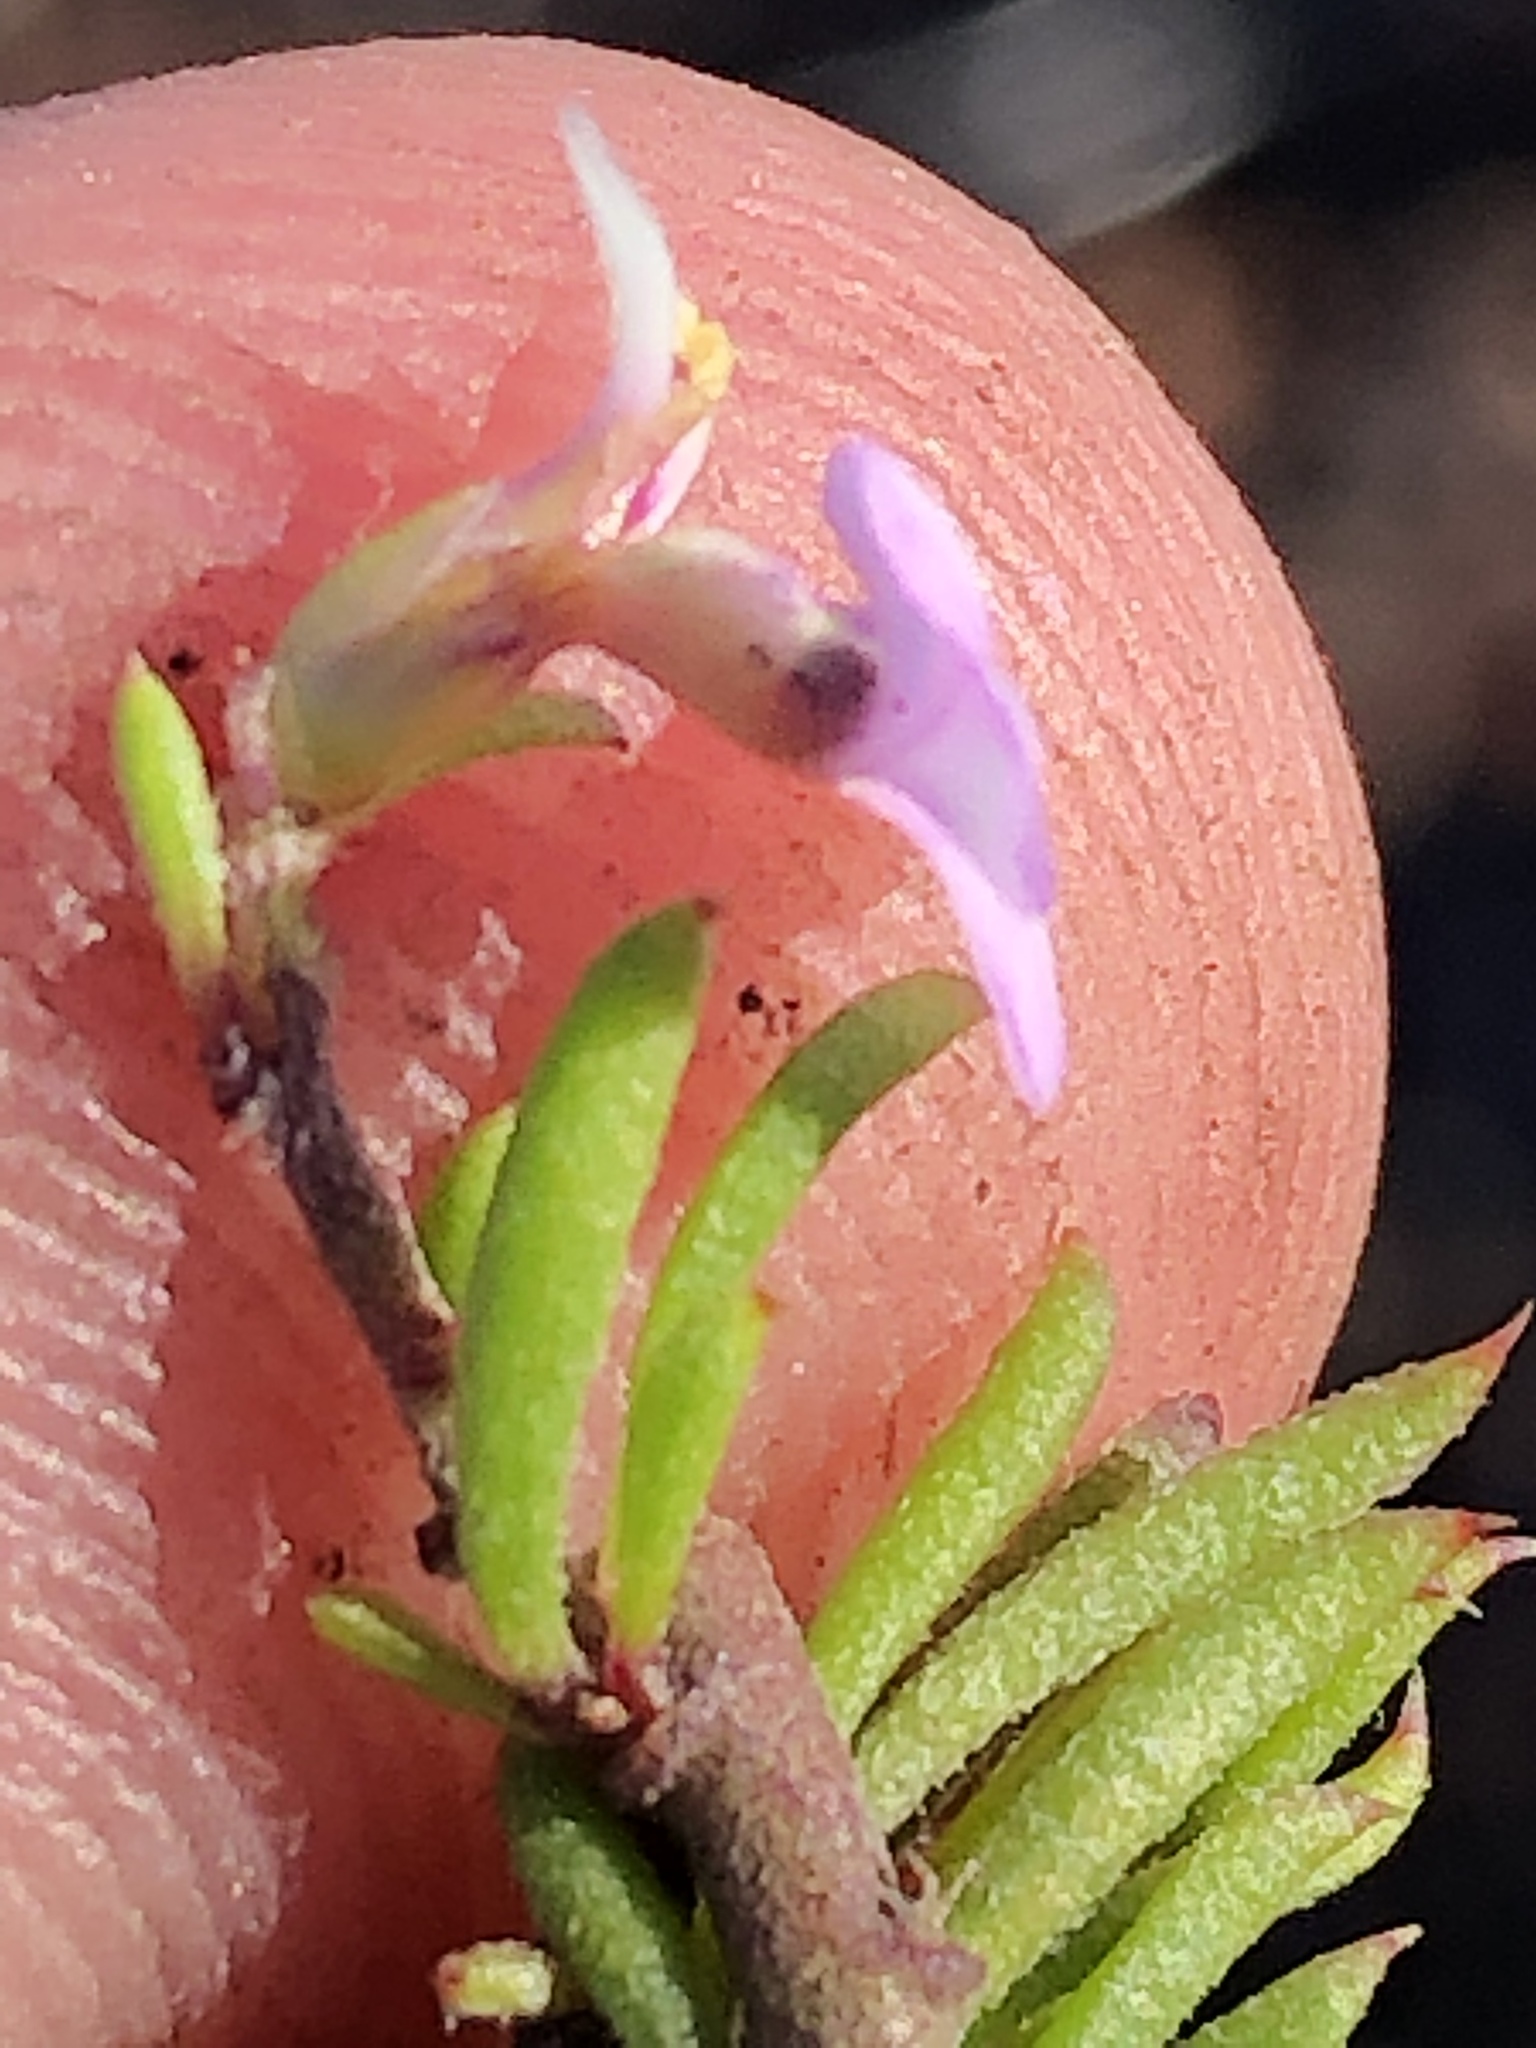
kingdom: Plantae
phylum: Tracheophyta
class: Magnoliopsida
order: Fabales
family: Polygalaceae
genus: Muraltia
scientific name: Muraltia ericoides
